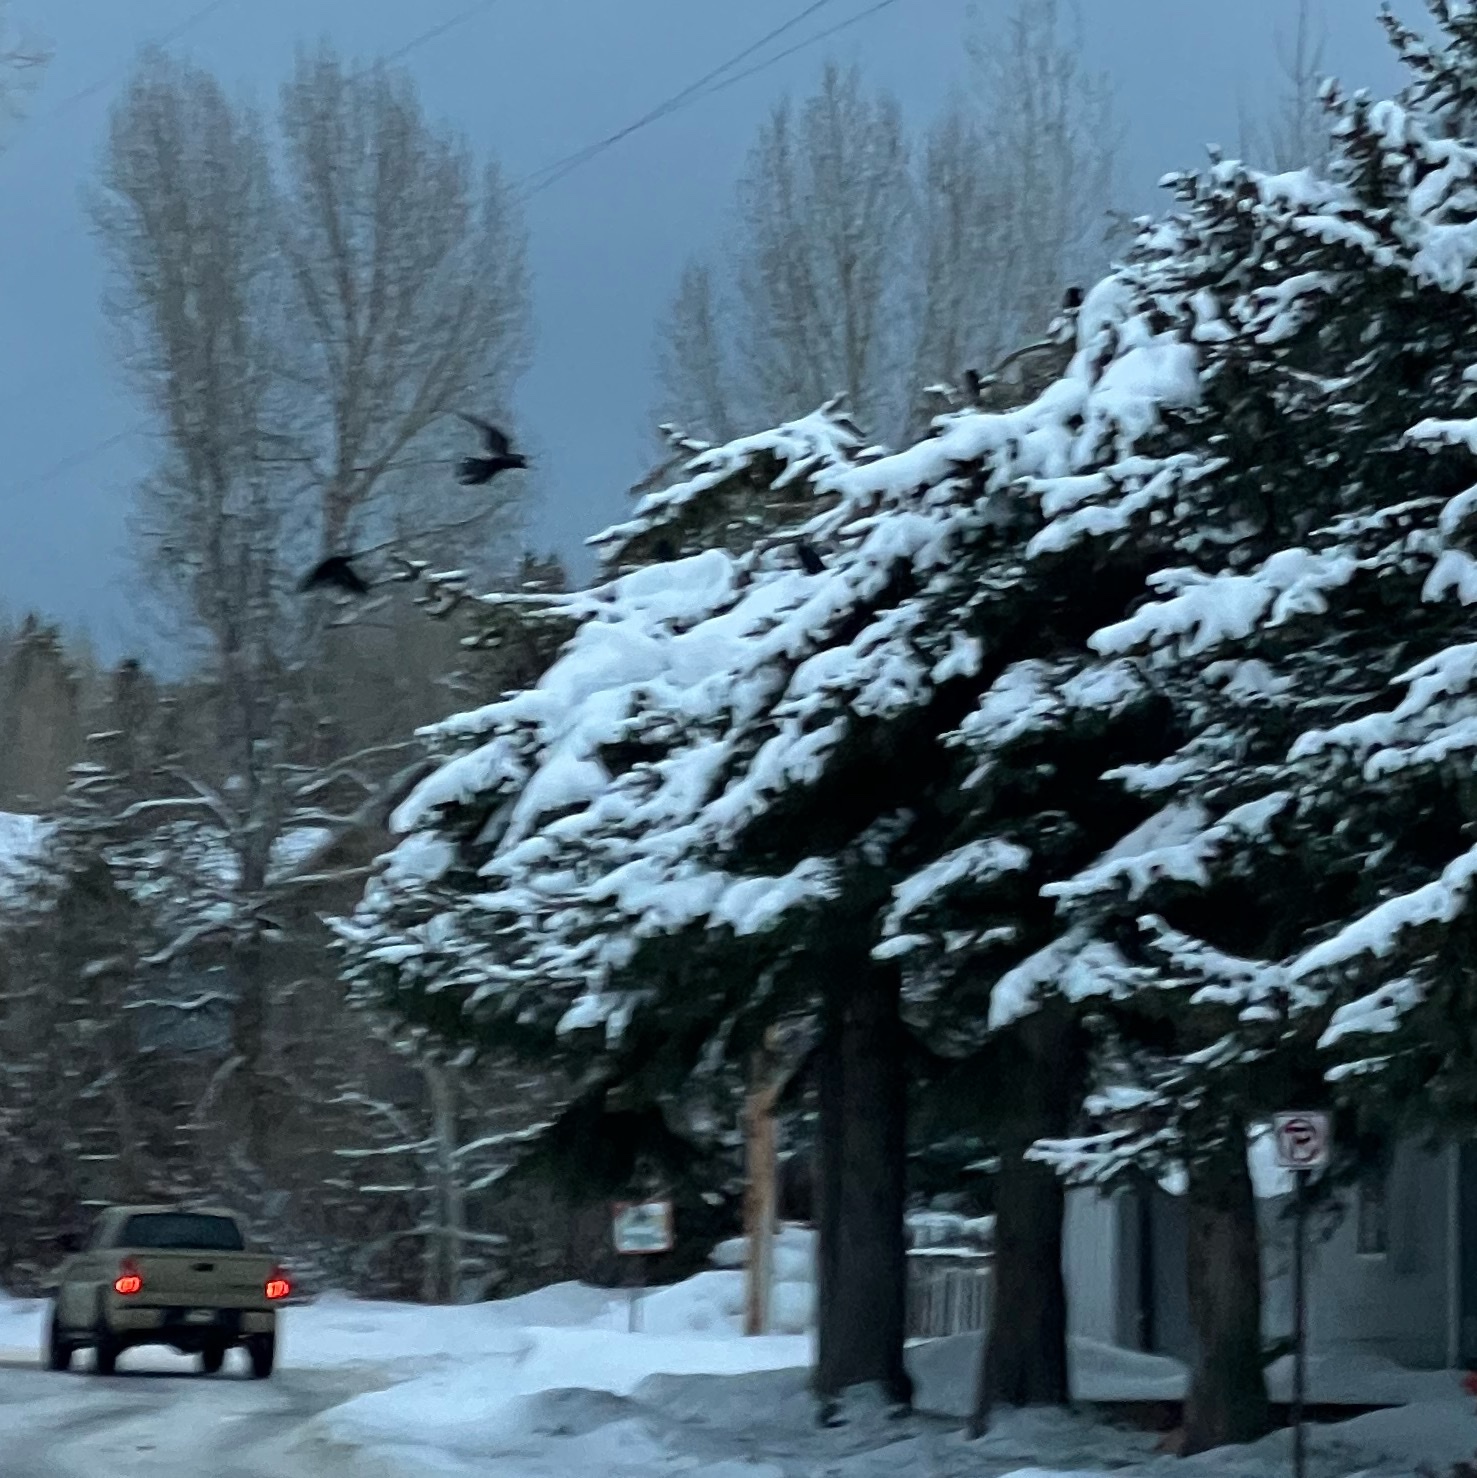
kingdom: Animalia
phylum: Chordata
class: Aves
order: Passeriformes
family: Corvidae
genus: Corvus
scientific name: Corvus corax
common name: Common raven
